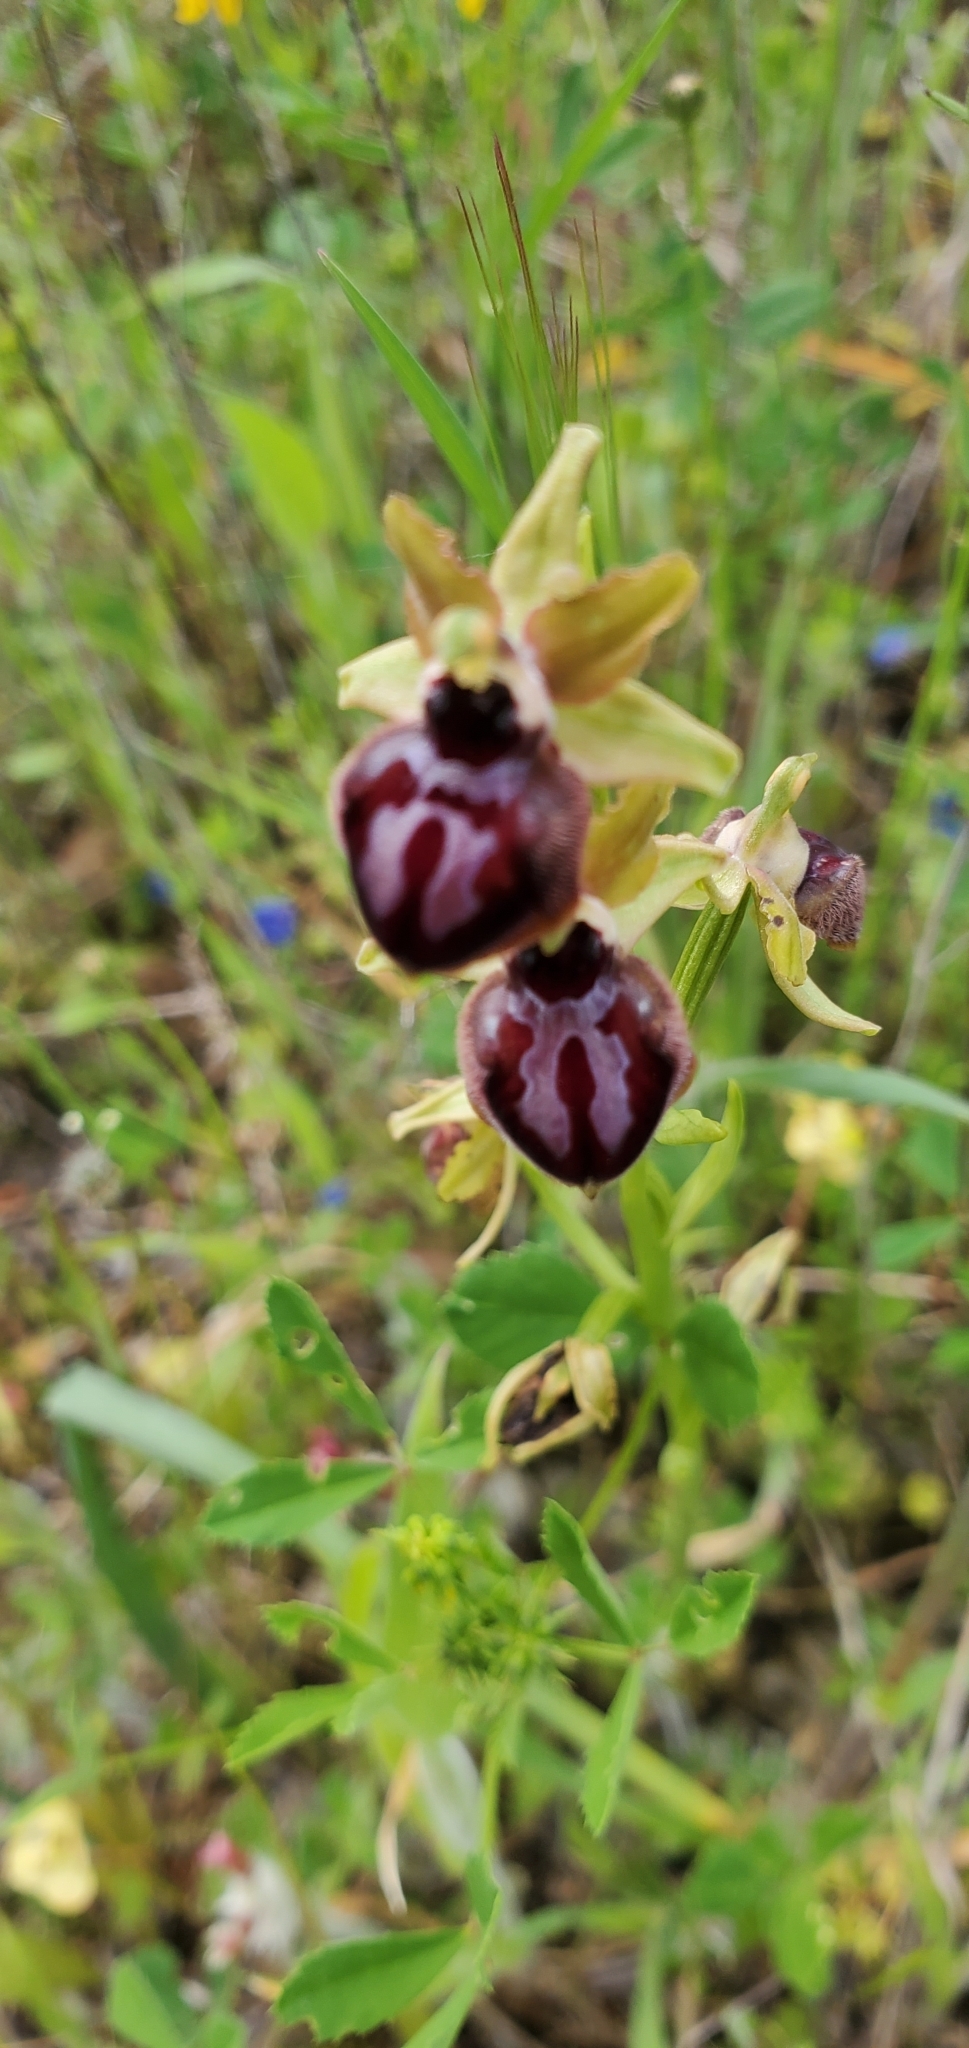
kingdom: Plantae
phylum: Tracheophyta
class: Liliopsida
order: Asparagales
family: Orchidaceae
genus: Ophrys
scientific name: Ophrys sphegodes
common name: Early spider-orchid
